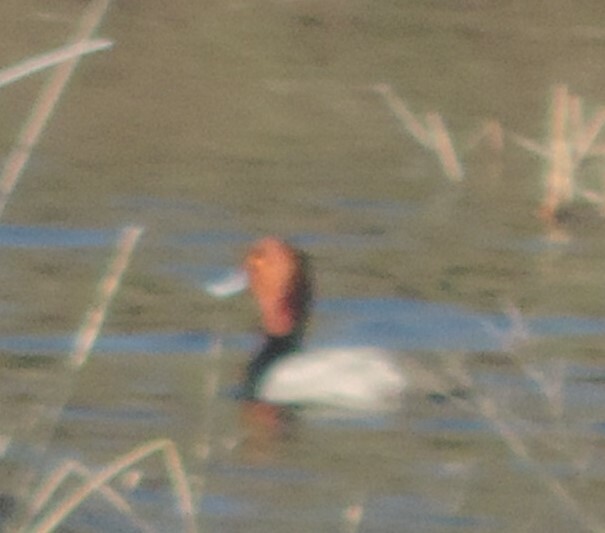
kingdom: Animalia
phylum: Chordata
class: Aves
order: Anseriformes
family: Anatidae
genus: Aythya
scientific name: Aythya americana
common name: Redhead
